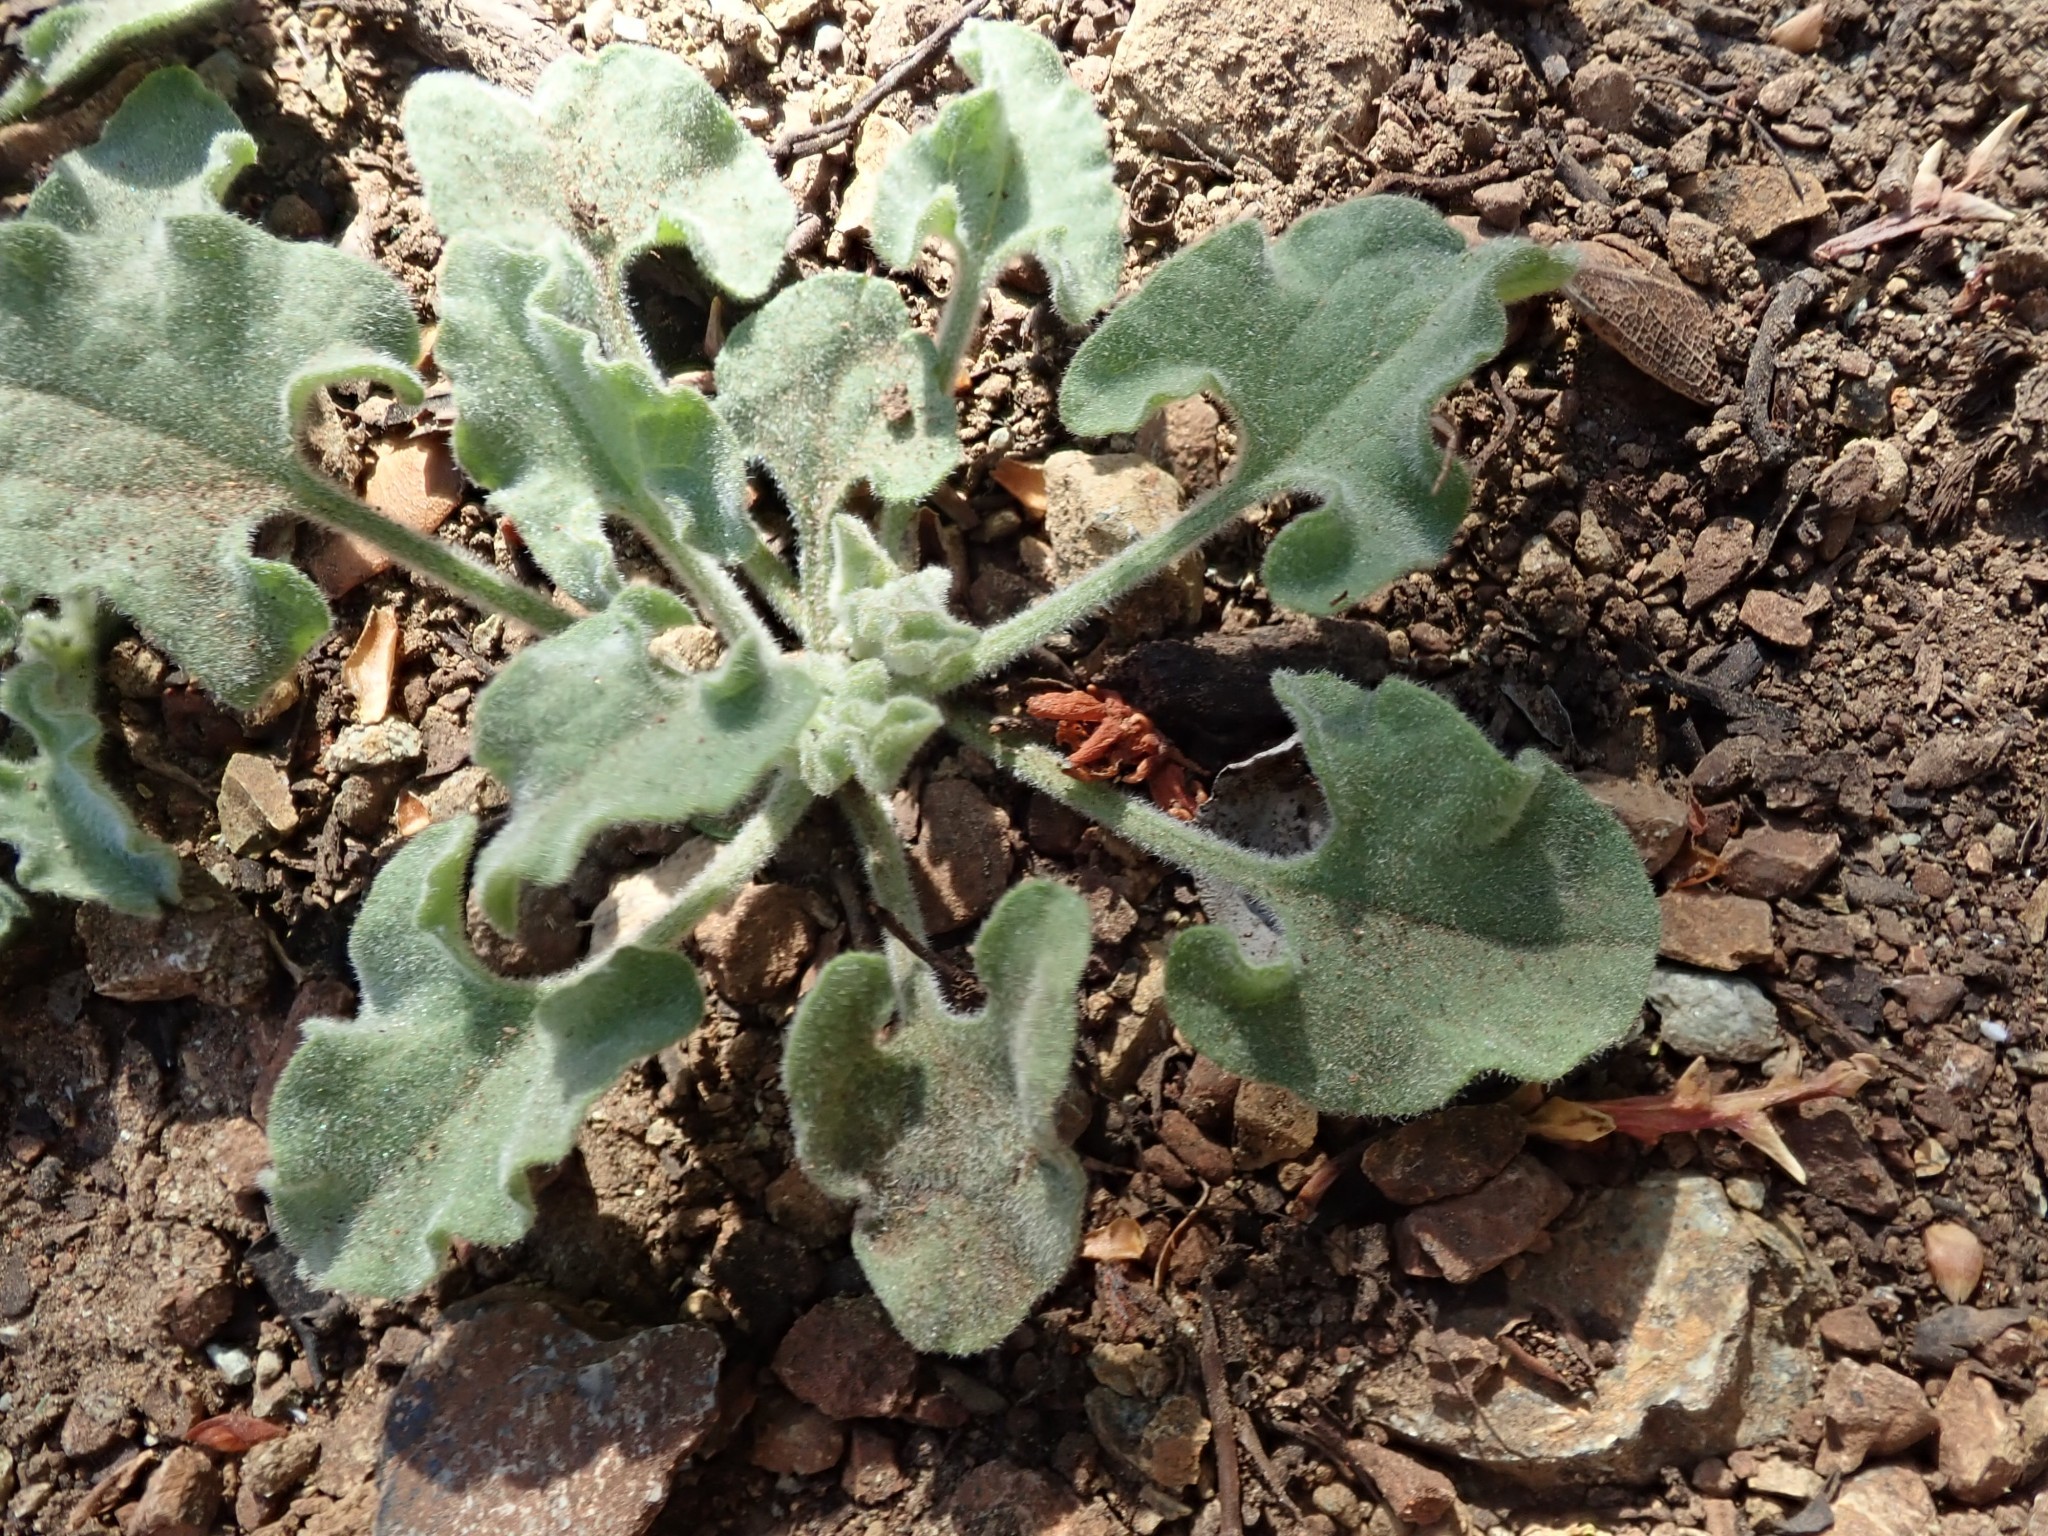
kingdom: Plantae
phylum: Tracheophyta
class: Magnoliopsida
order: Solanales
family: Convolvulaceae
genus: Calystegia
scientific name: Calystegia collina
